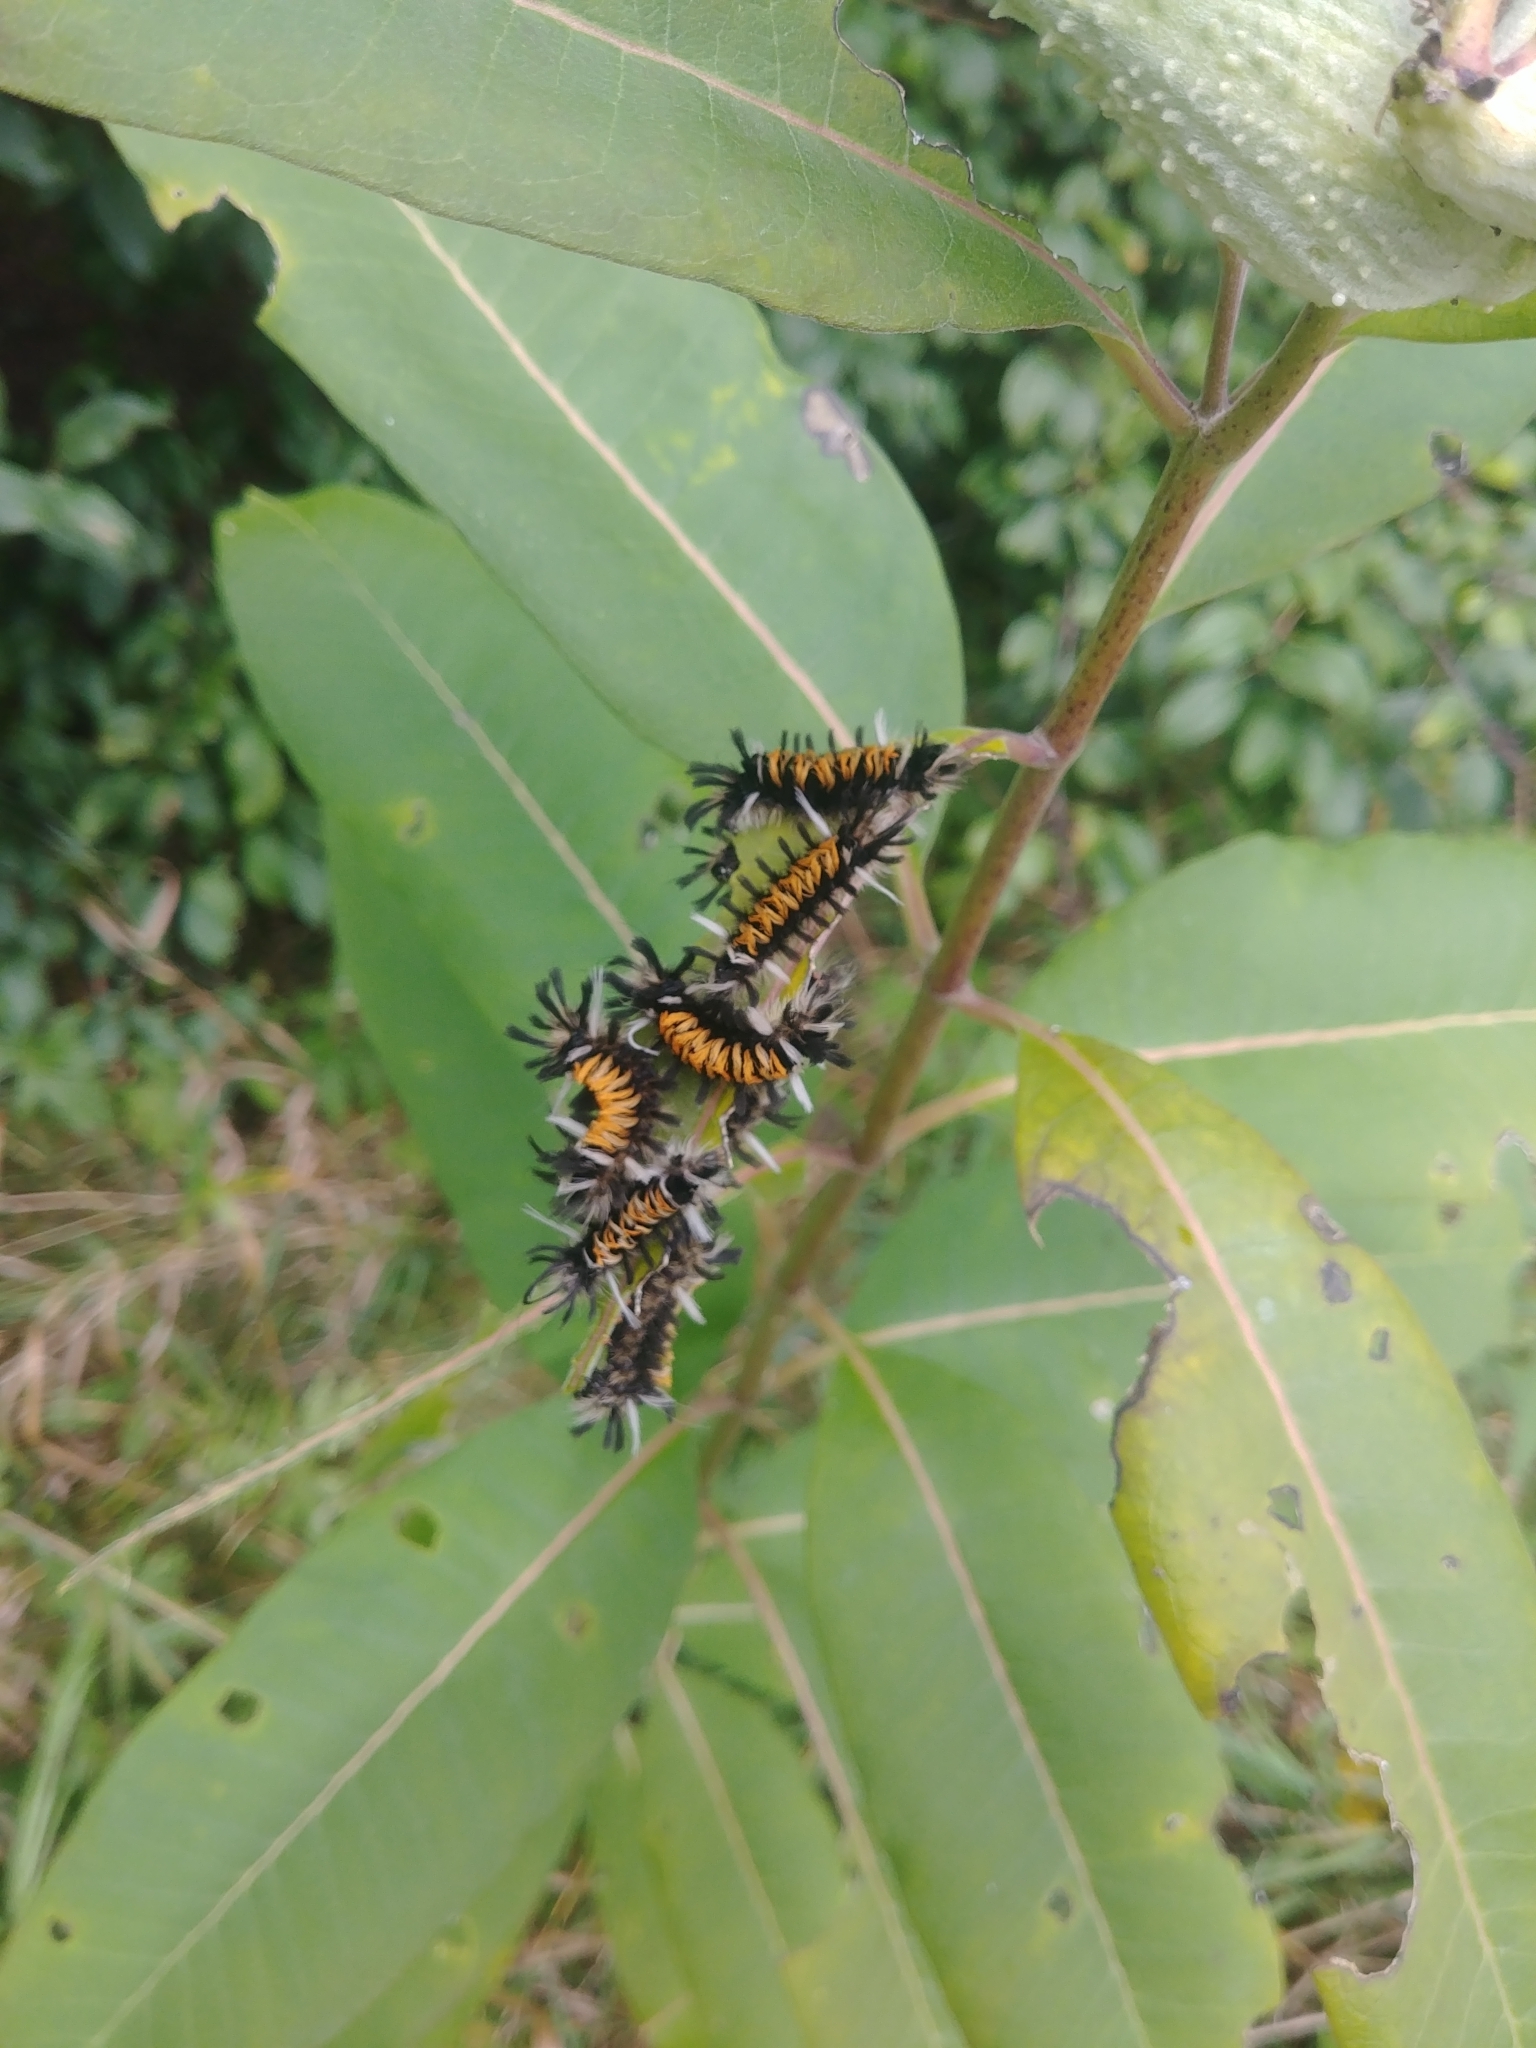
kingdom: Animalia
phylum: Arthropoda
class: Insecta
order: Lepidoptera
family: Erebidae
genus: Euchaetes
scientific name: Euchaetes egle
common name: Milkweed tussock moth
